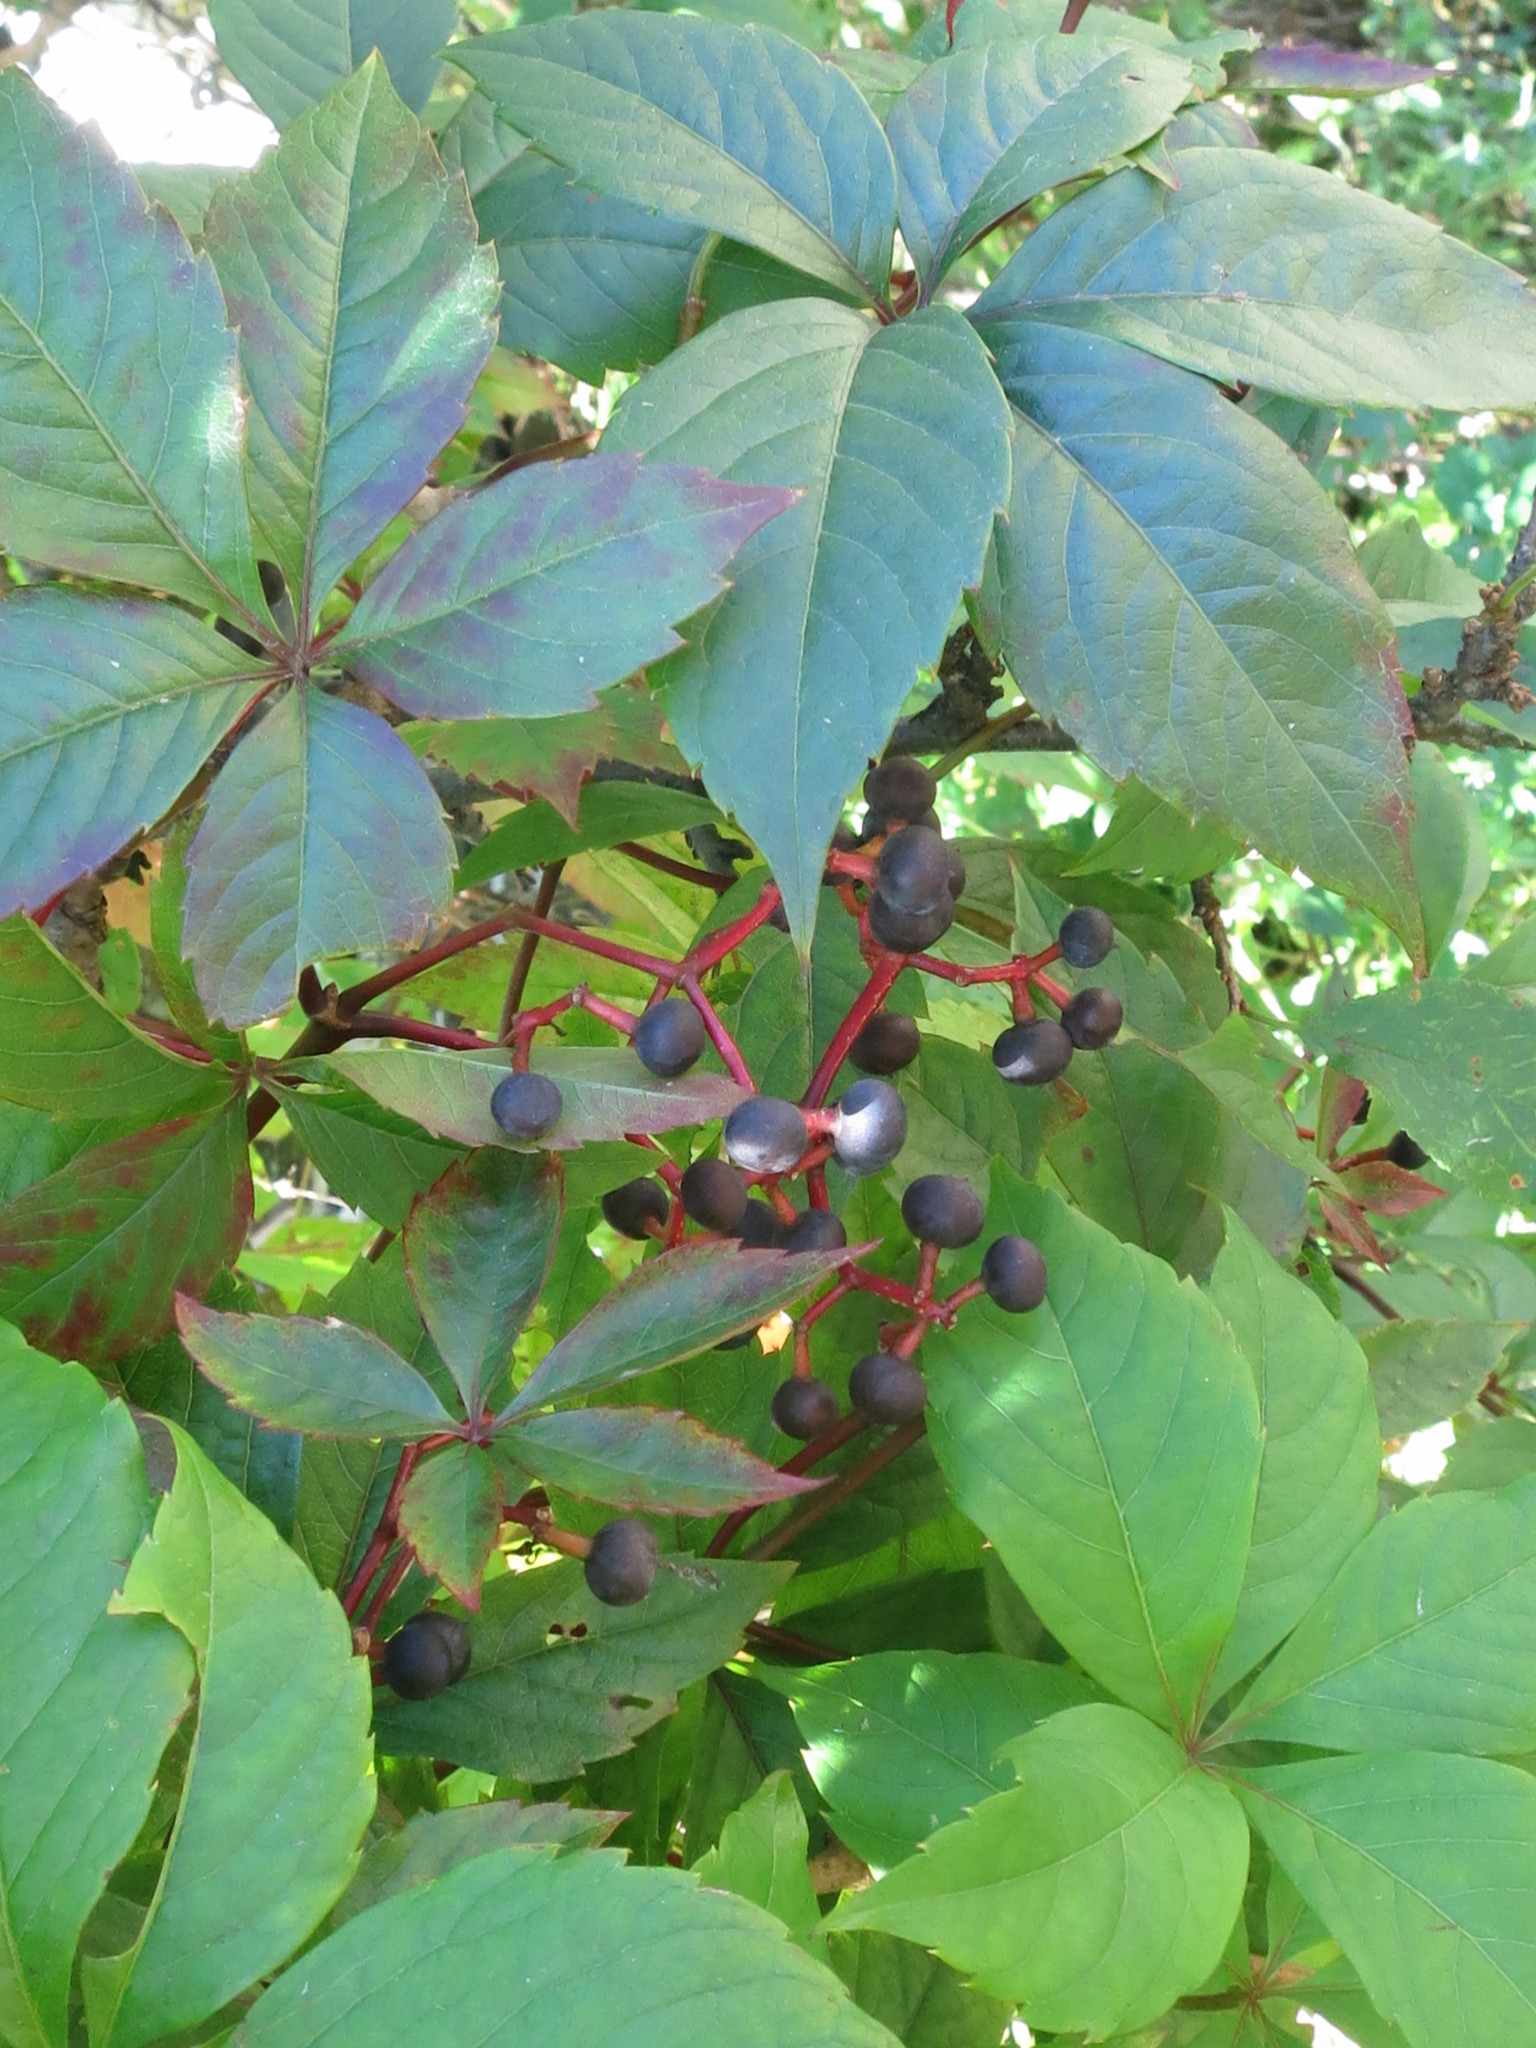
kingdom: Plantae
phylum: Tracheophyta
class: Magnoliopsida
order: Vitales
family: Vitaceae
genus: Parthenocissus
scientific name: Parthenocissus inserta
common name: False virginia-creeper
